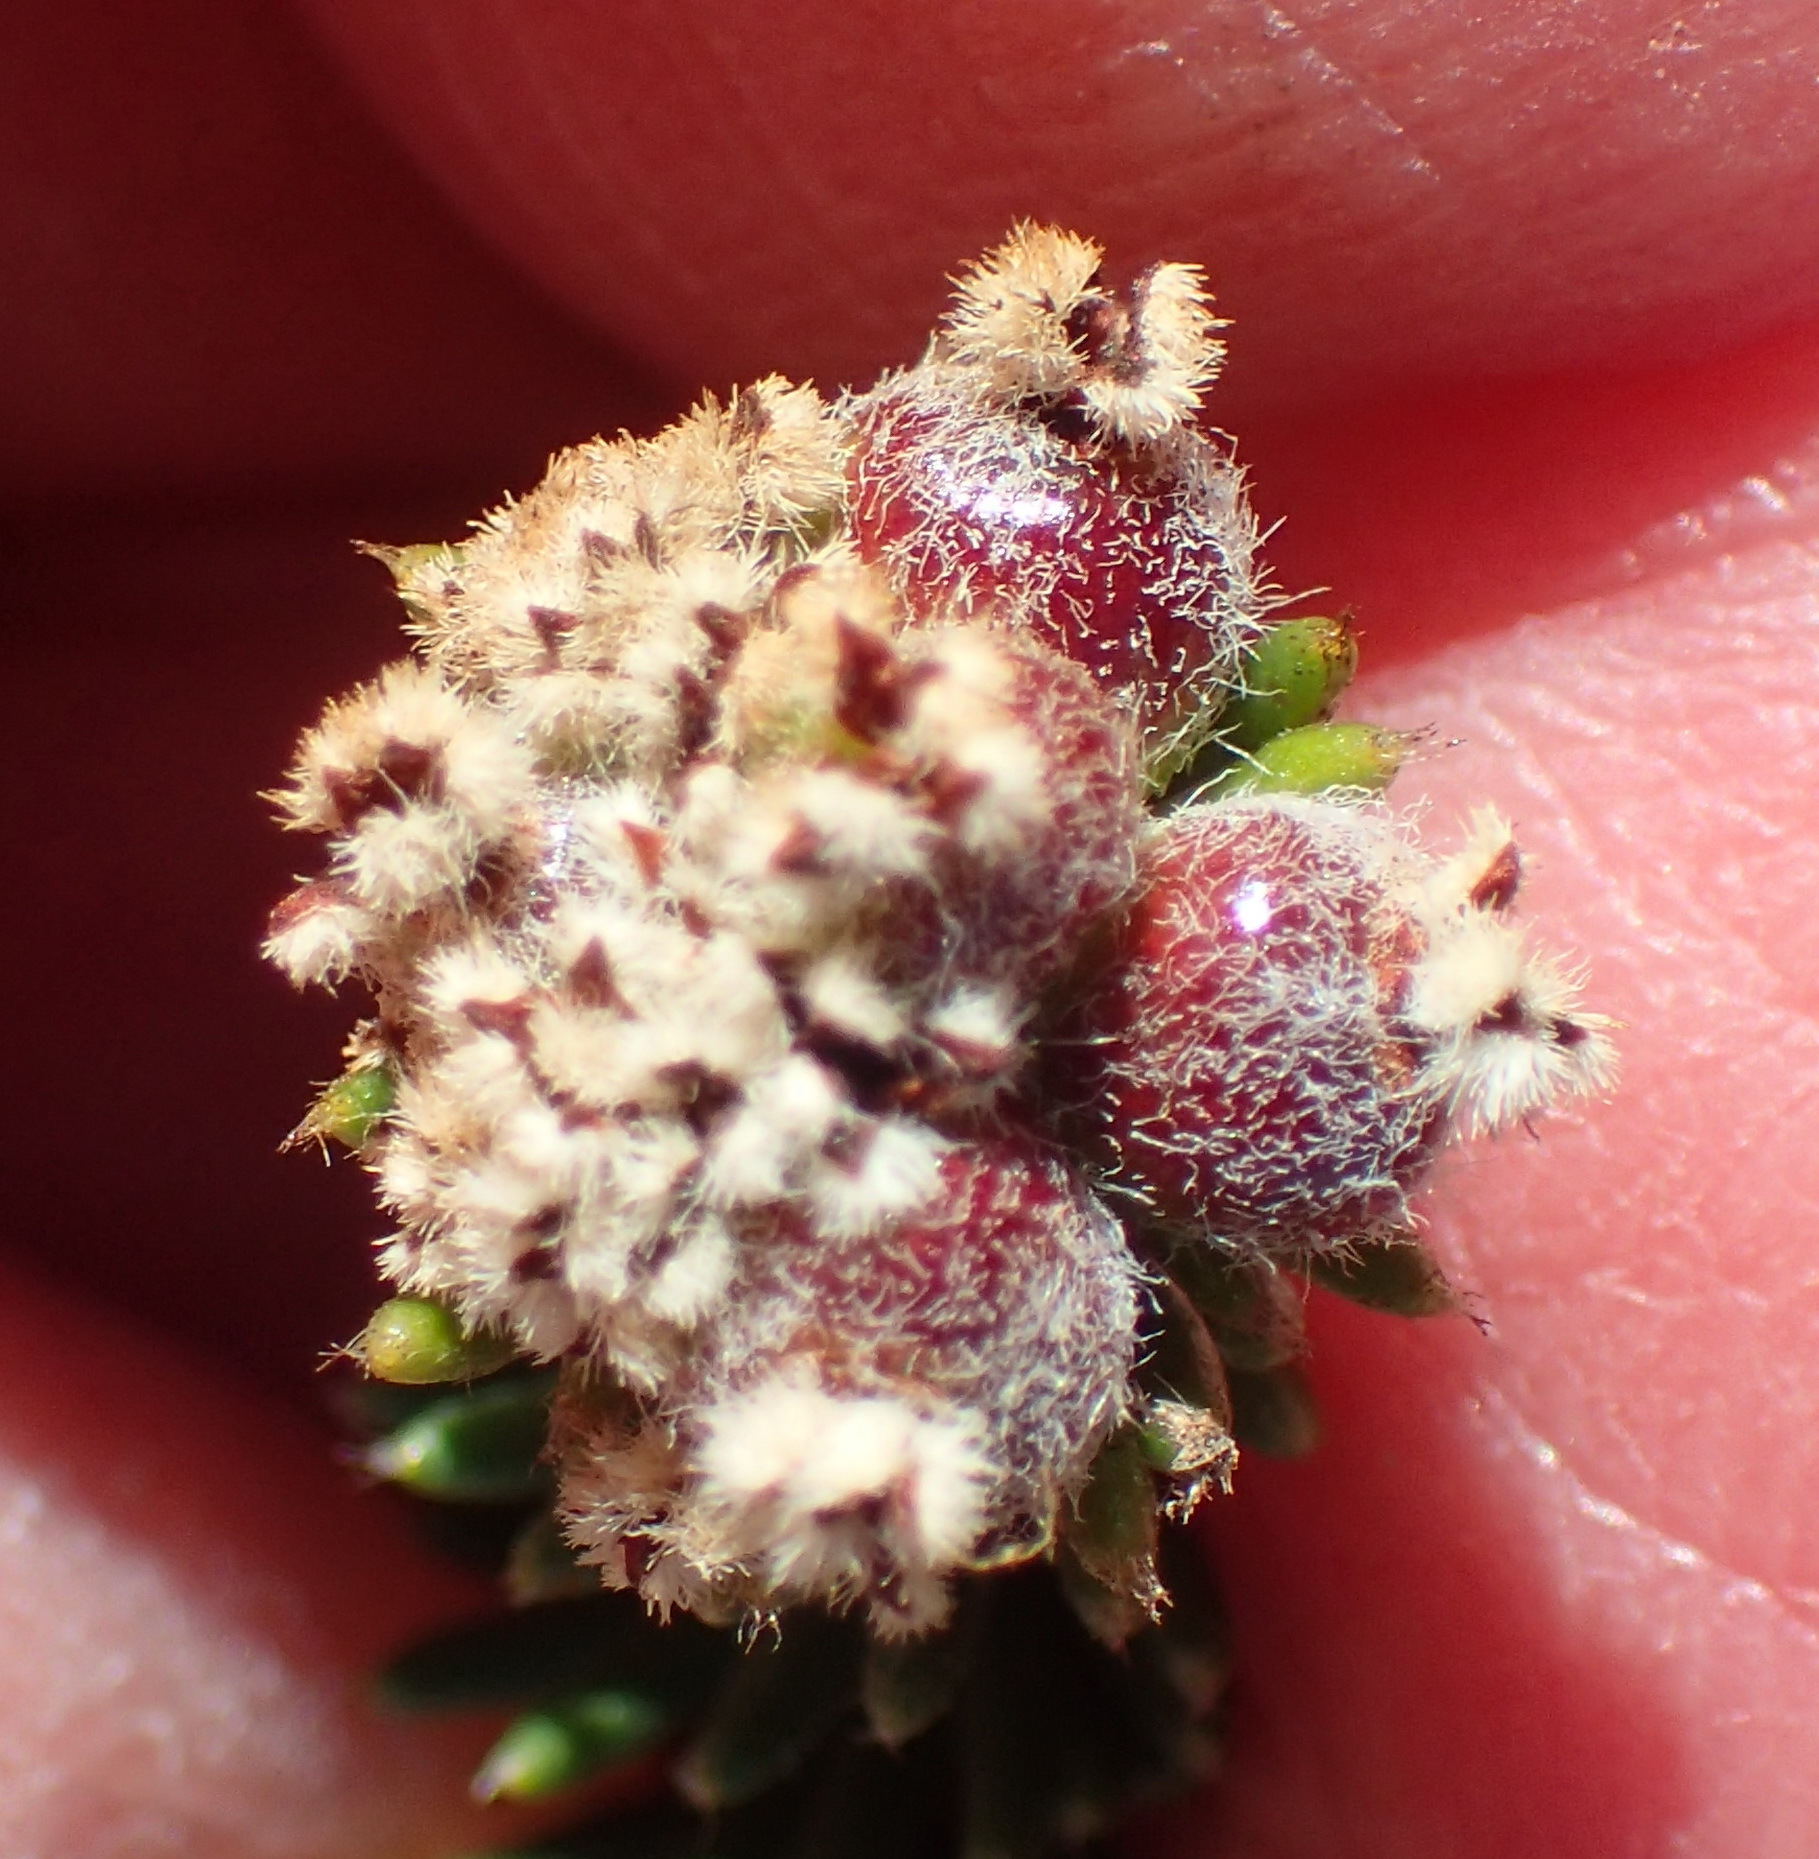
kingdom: Plantae
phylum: Tracheophyta
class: Magnoliopsida
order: Rosales
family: Rhamnaceae
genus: Phylica
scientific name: Phylica imberbis
